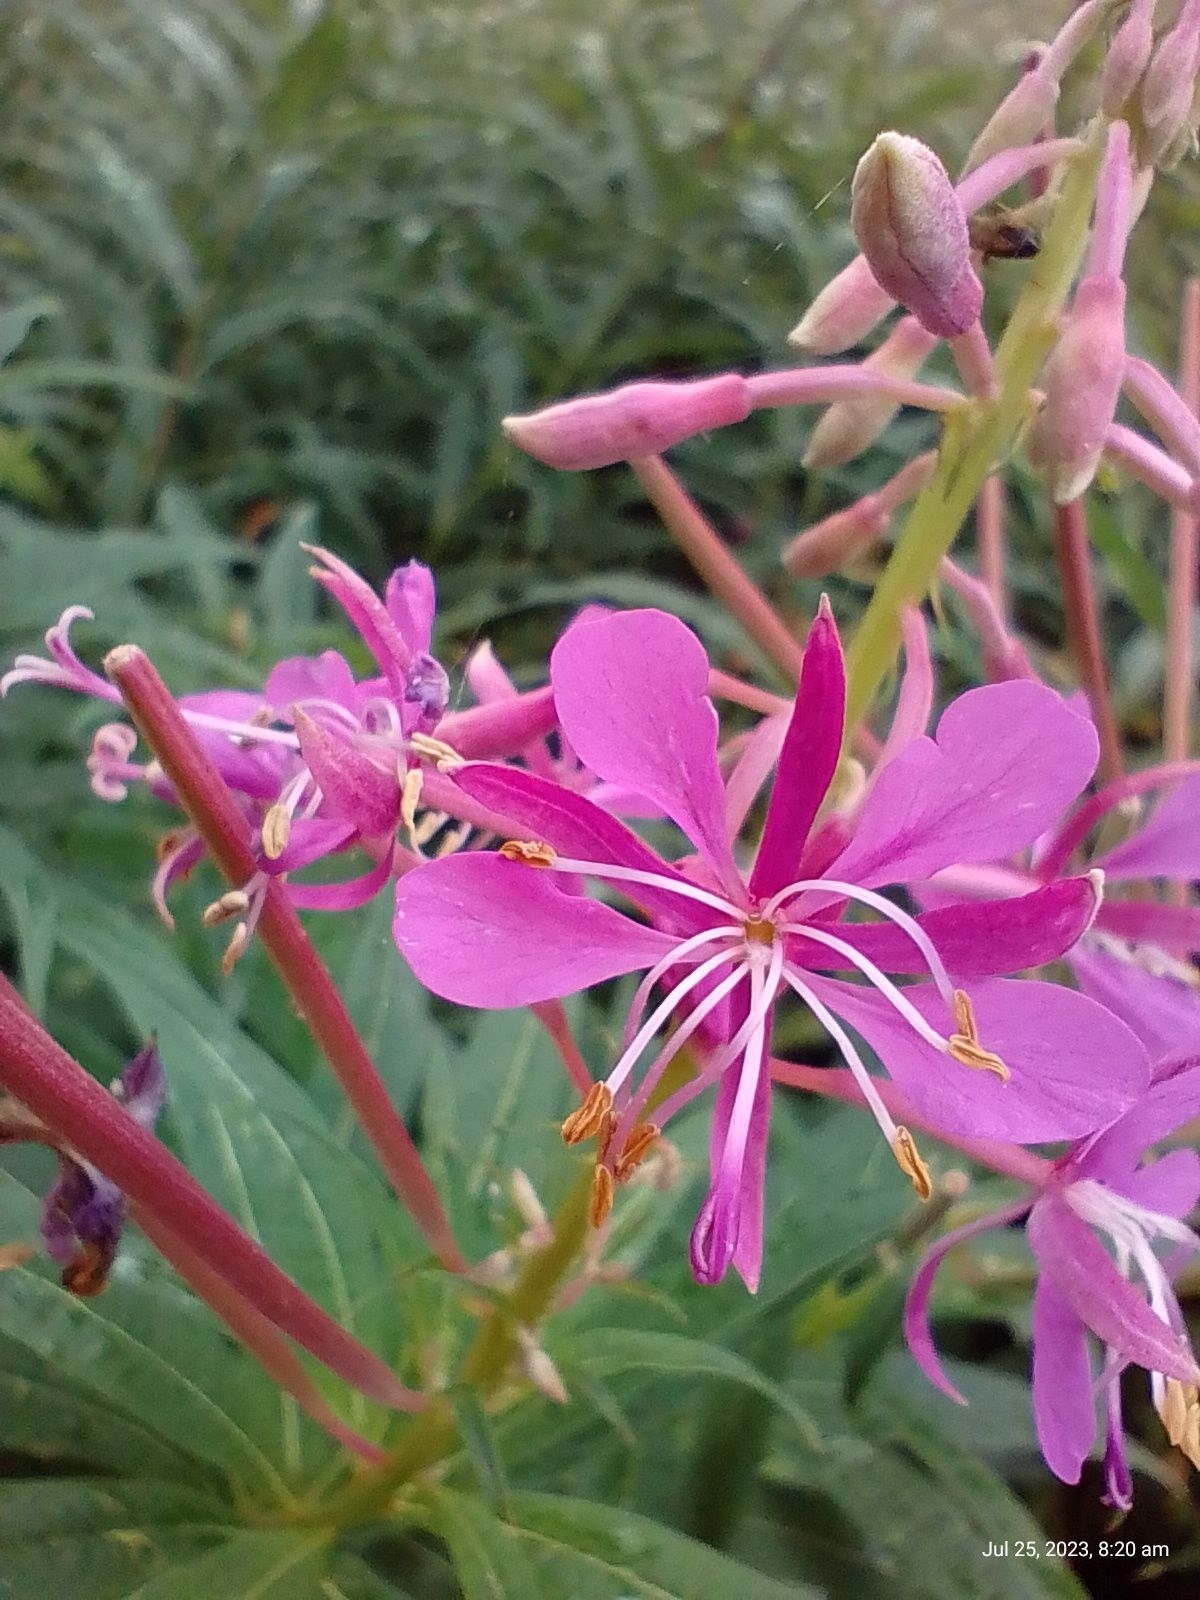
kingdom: Plantae
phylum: Tracheophyta
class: Magnoliopsida
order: Myrtales
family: Onagraceae
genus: Chamaenerion
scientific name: Chamaenerion angustifolium
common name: Fireweed
